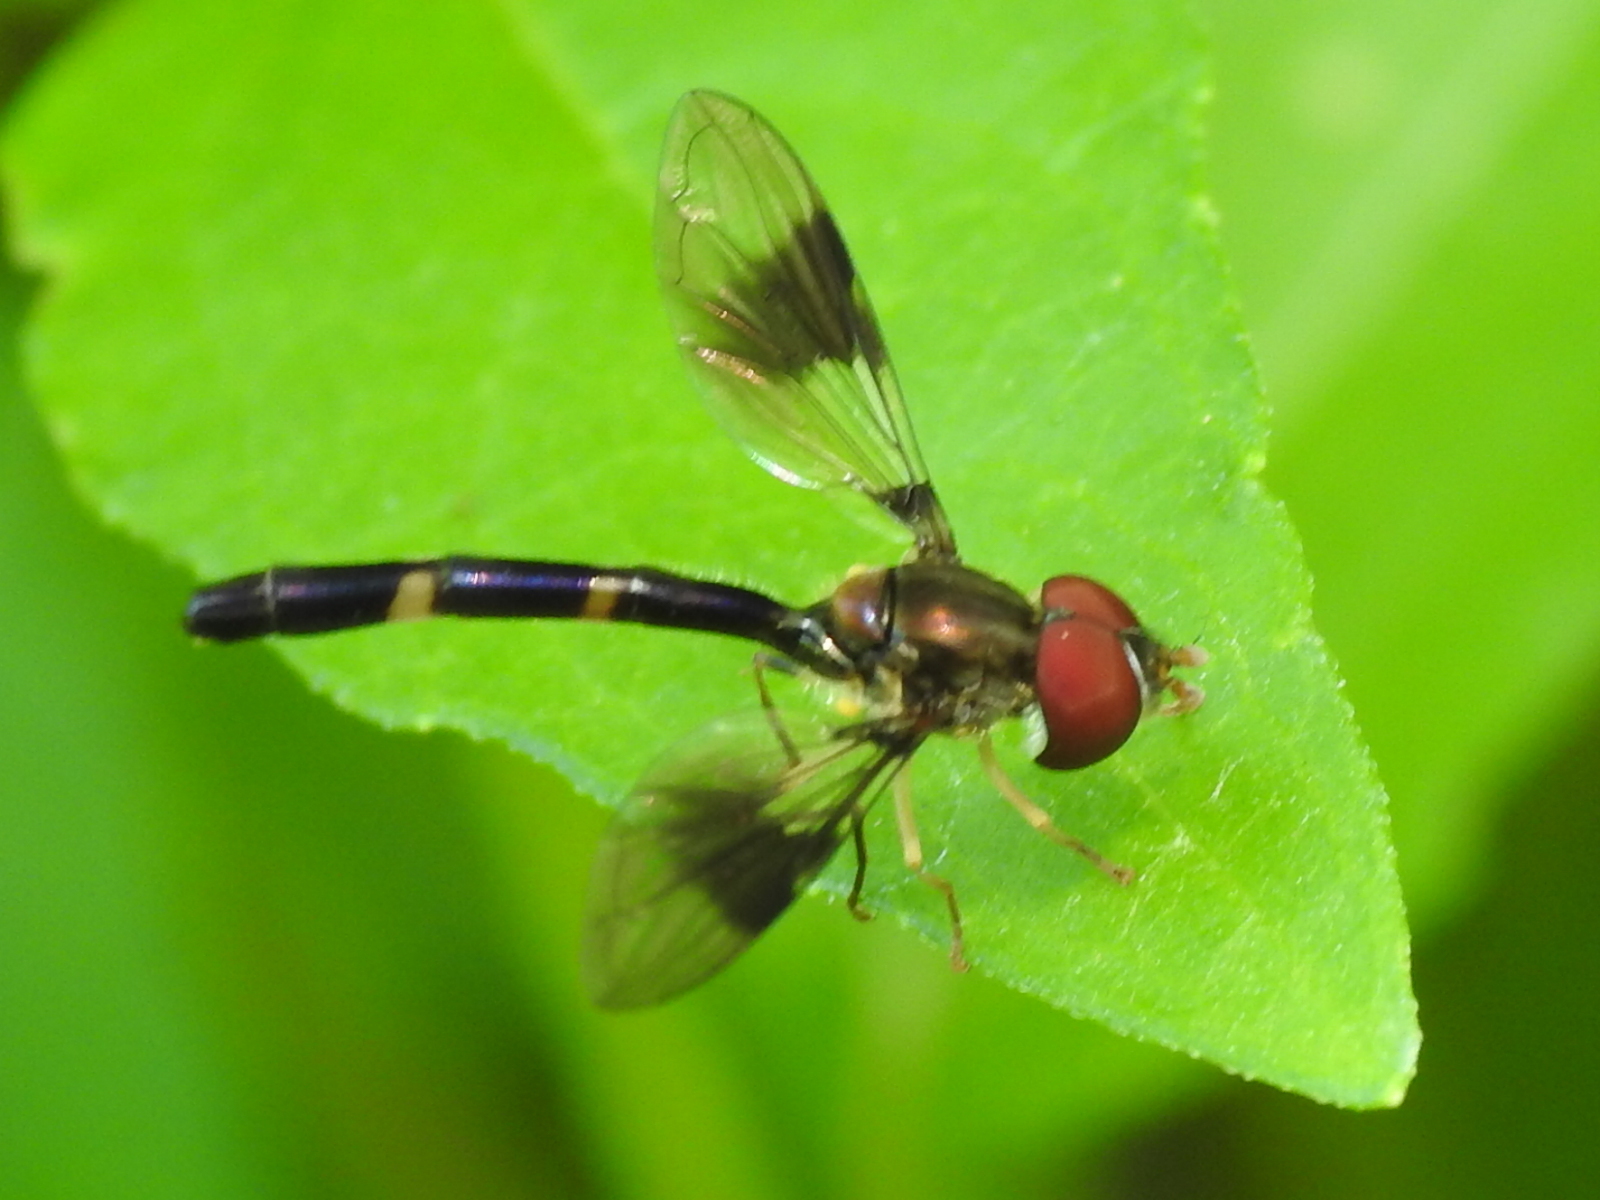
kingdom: Animalia
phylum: Arthropoda
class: Insecta
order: Diptera
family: Syrphidae
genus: Hypocritanus
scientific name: Hypocritanus fascipennis
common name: Eastern band-winged hover fly
